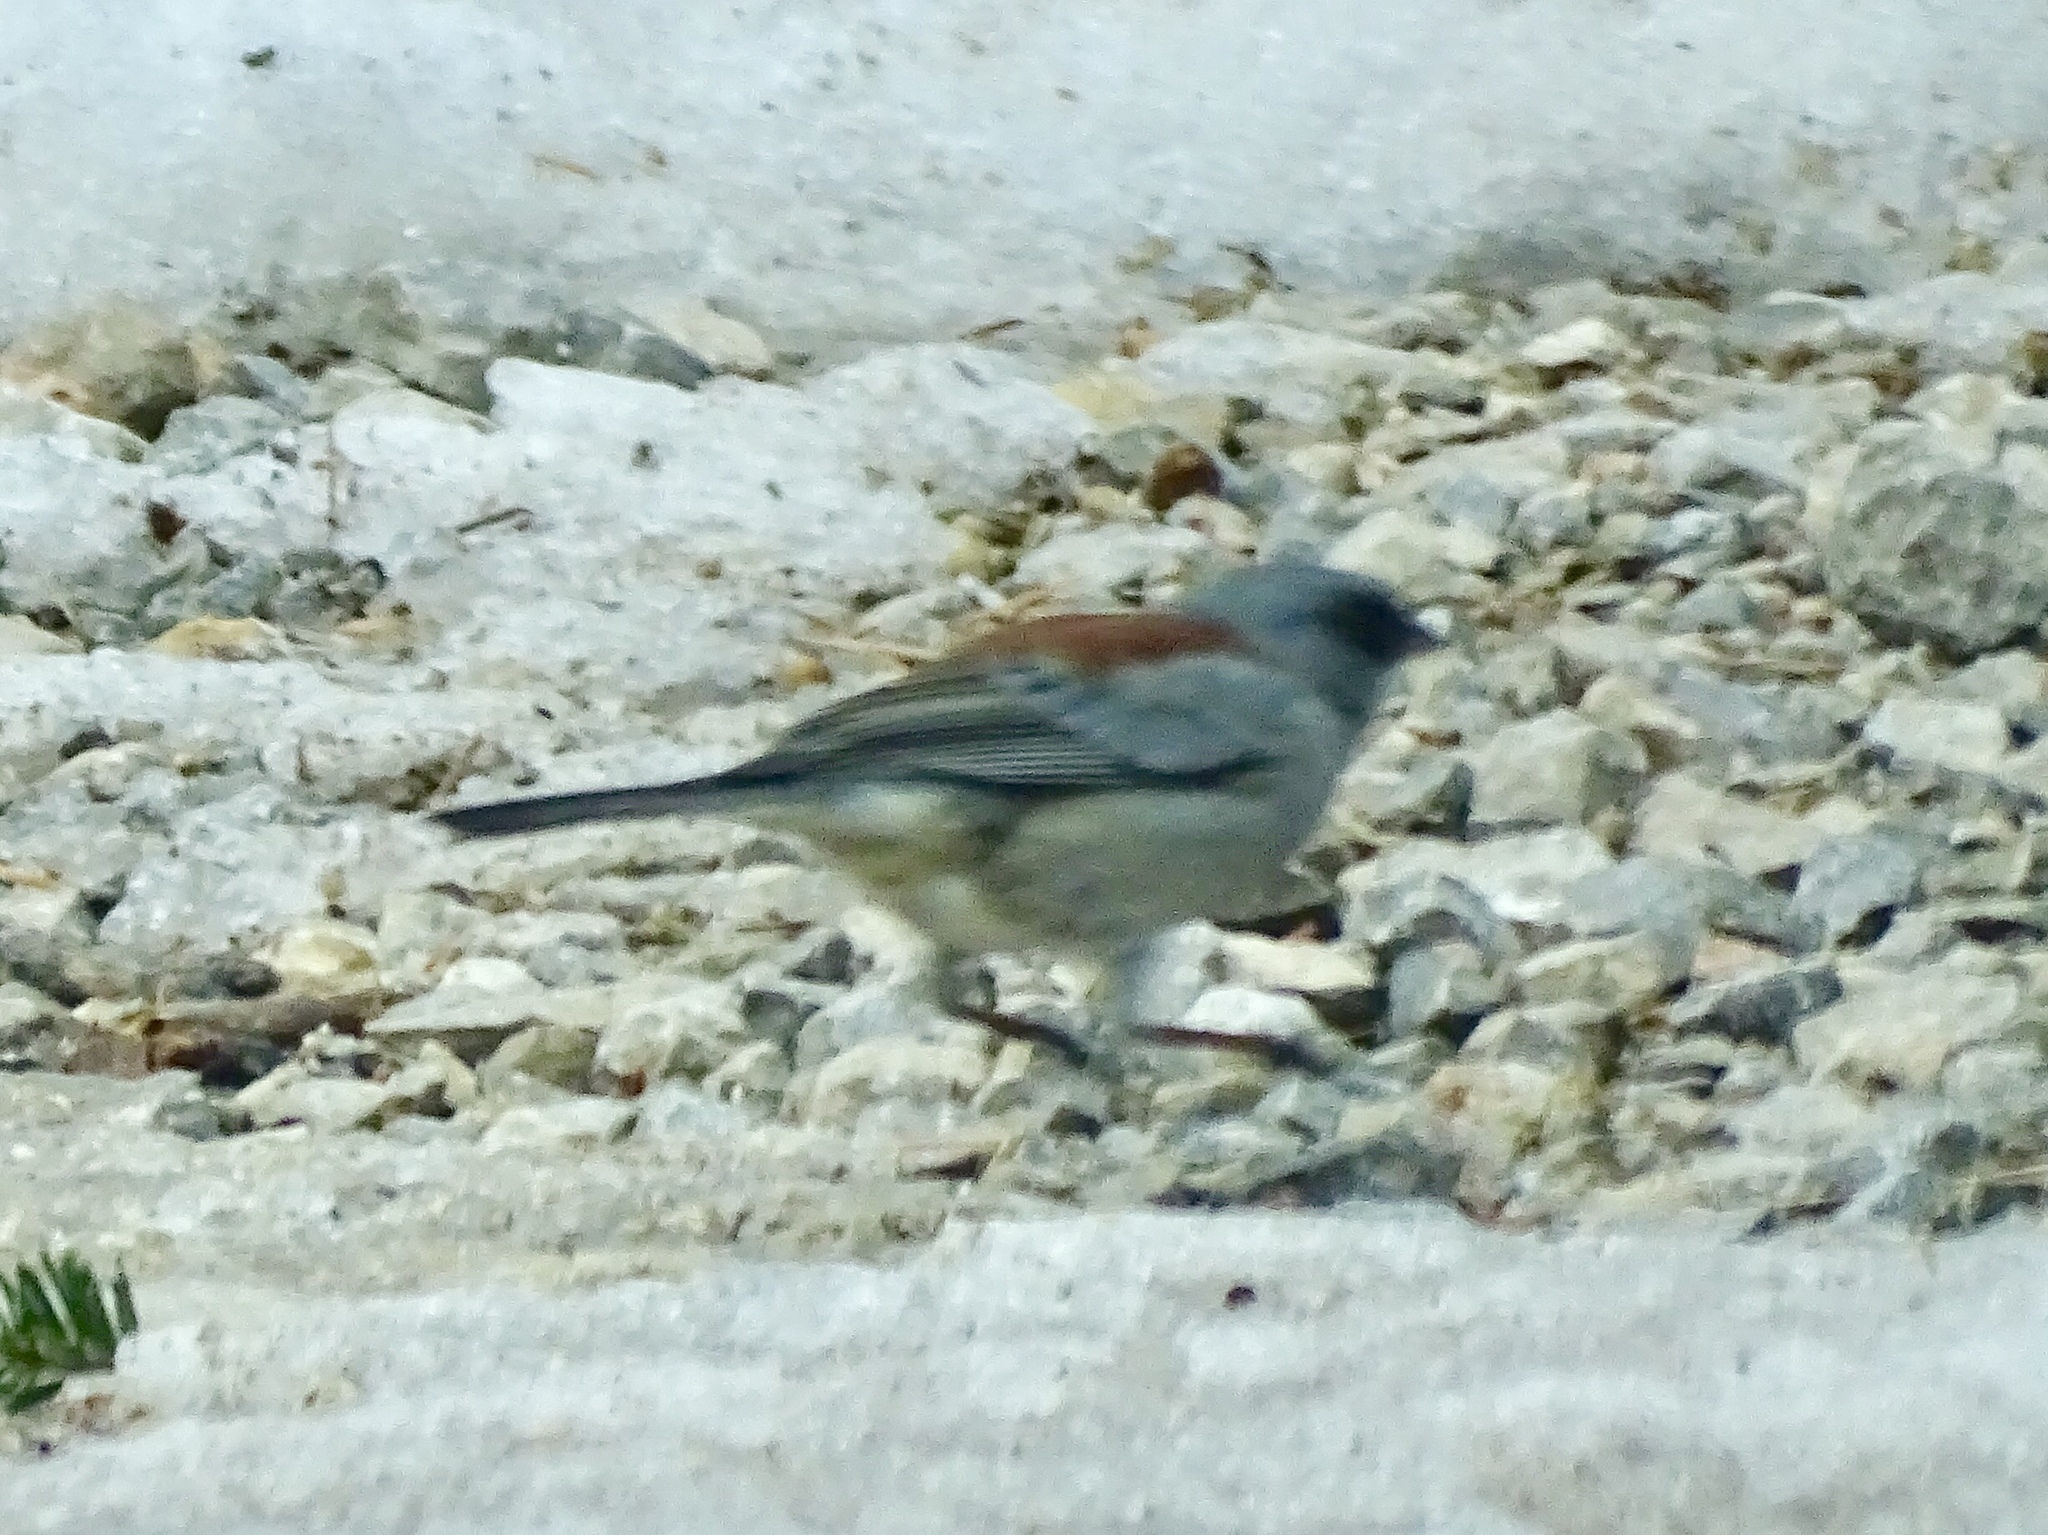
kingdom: Animalia
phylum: Chordata
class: Aves
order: Passeriformes
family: Passerellidae
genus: Junco
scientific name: Junco hyemalis
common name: Dark-eyed junco
